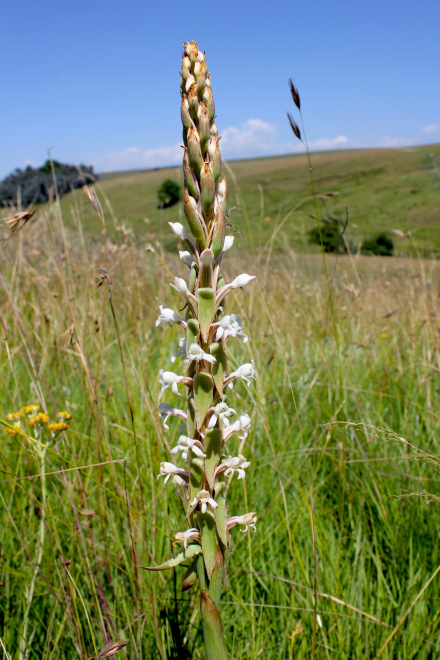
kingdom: Plantae
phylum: Tracheophyta
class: Liliopsida
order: Asparagales
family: Orchidaceae
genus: Satyrium
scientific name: Satyrium longicauda
